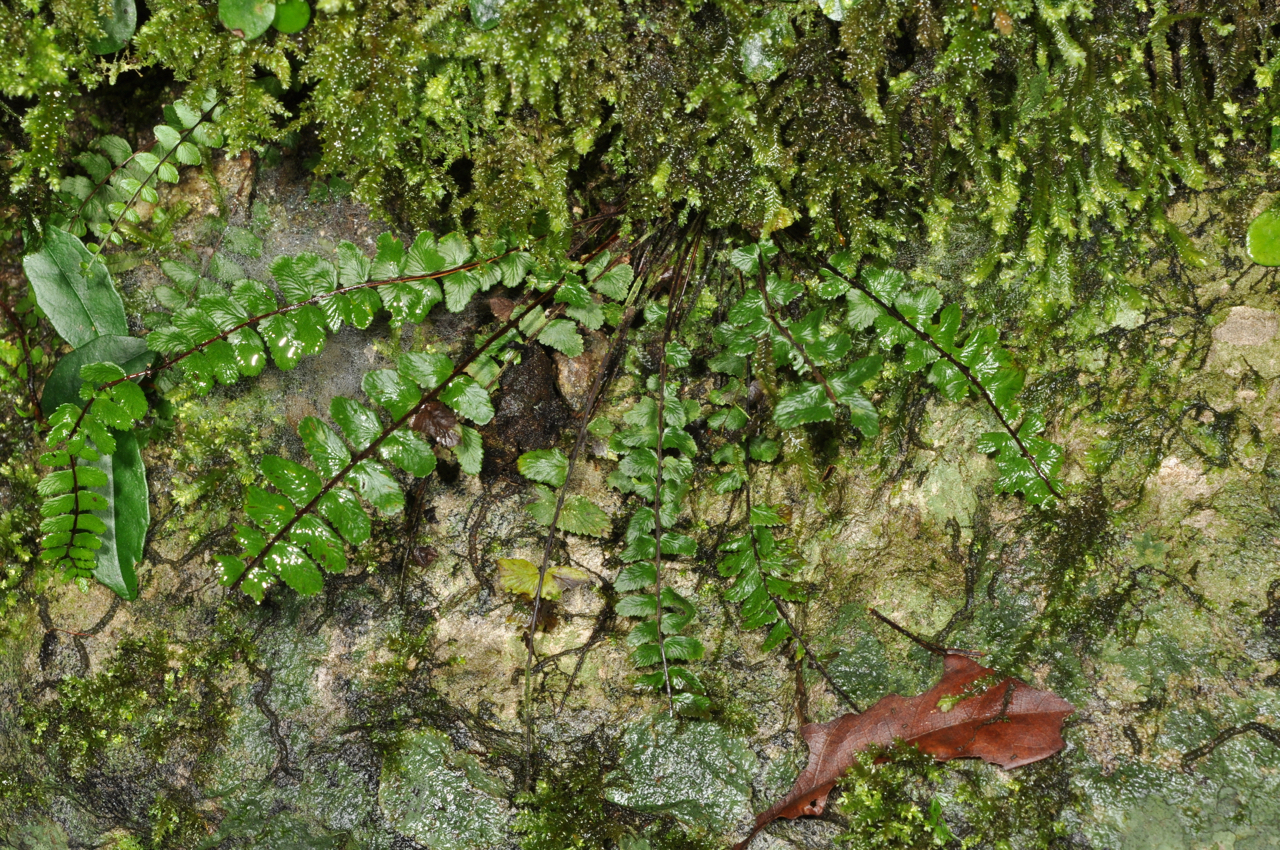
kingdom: Plantae
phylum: Tracheophyta
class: Polypodiopsida
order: Polypodiales
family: Aspleniaceae
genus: Asplenium
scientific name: Asplenium tripteropus
